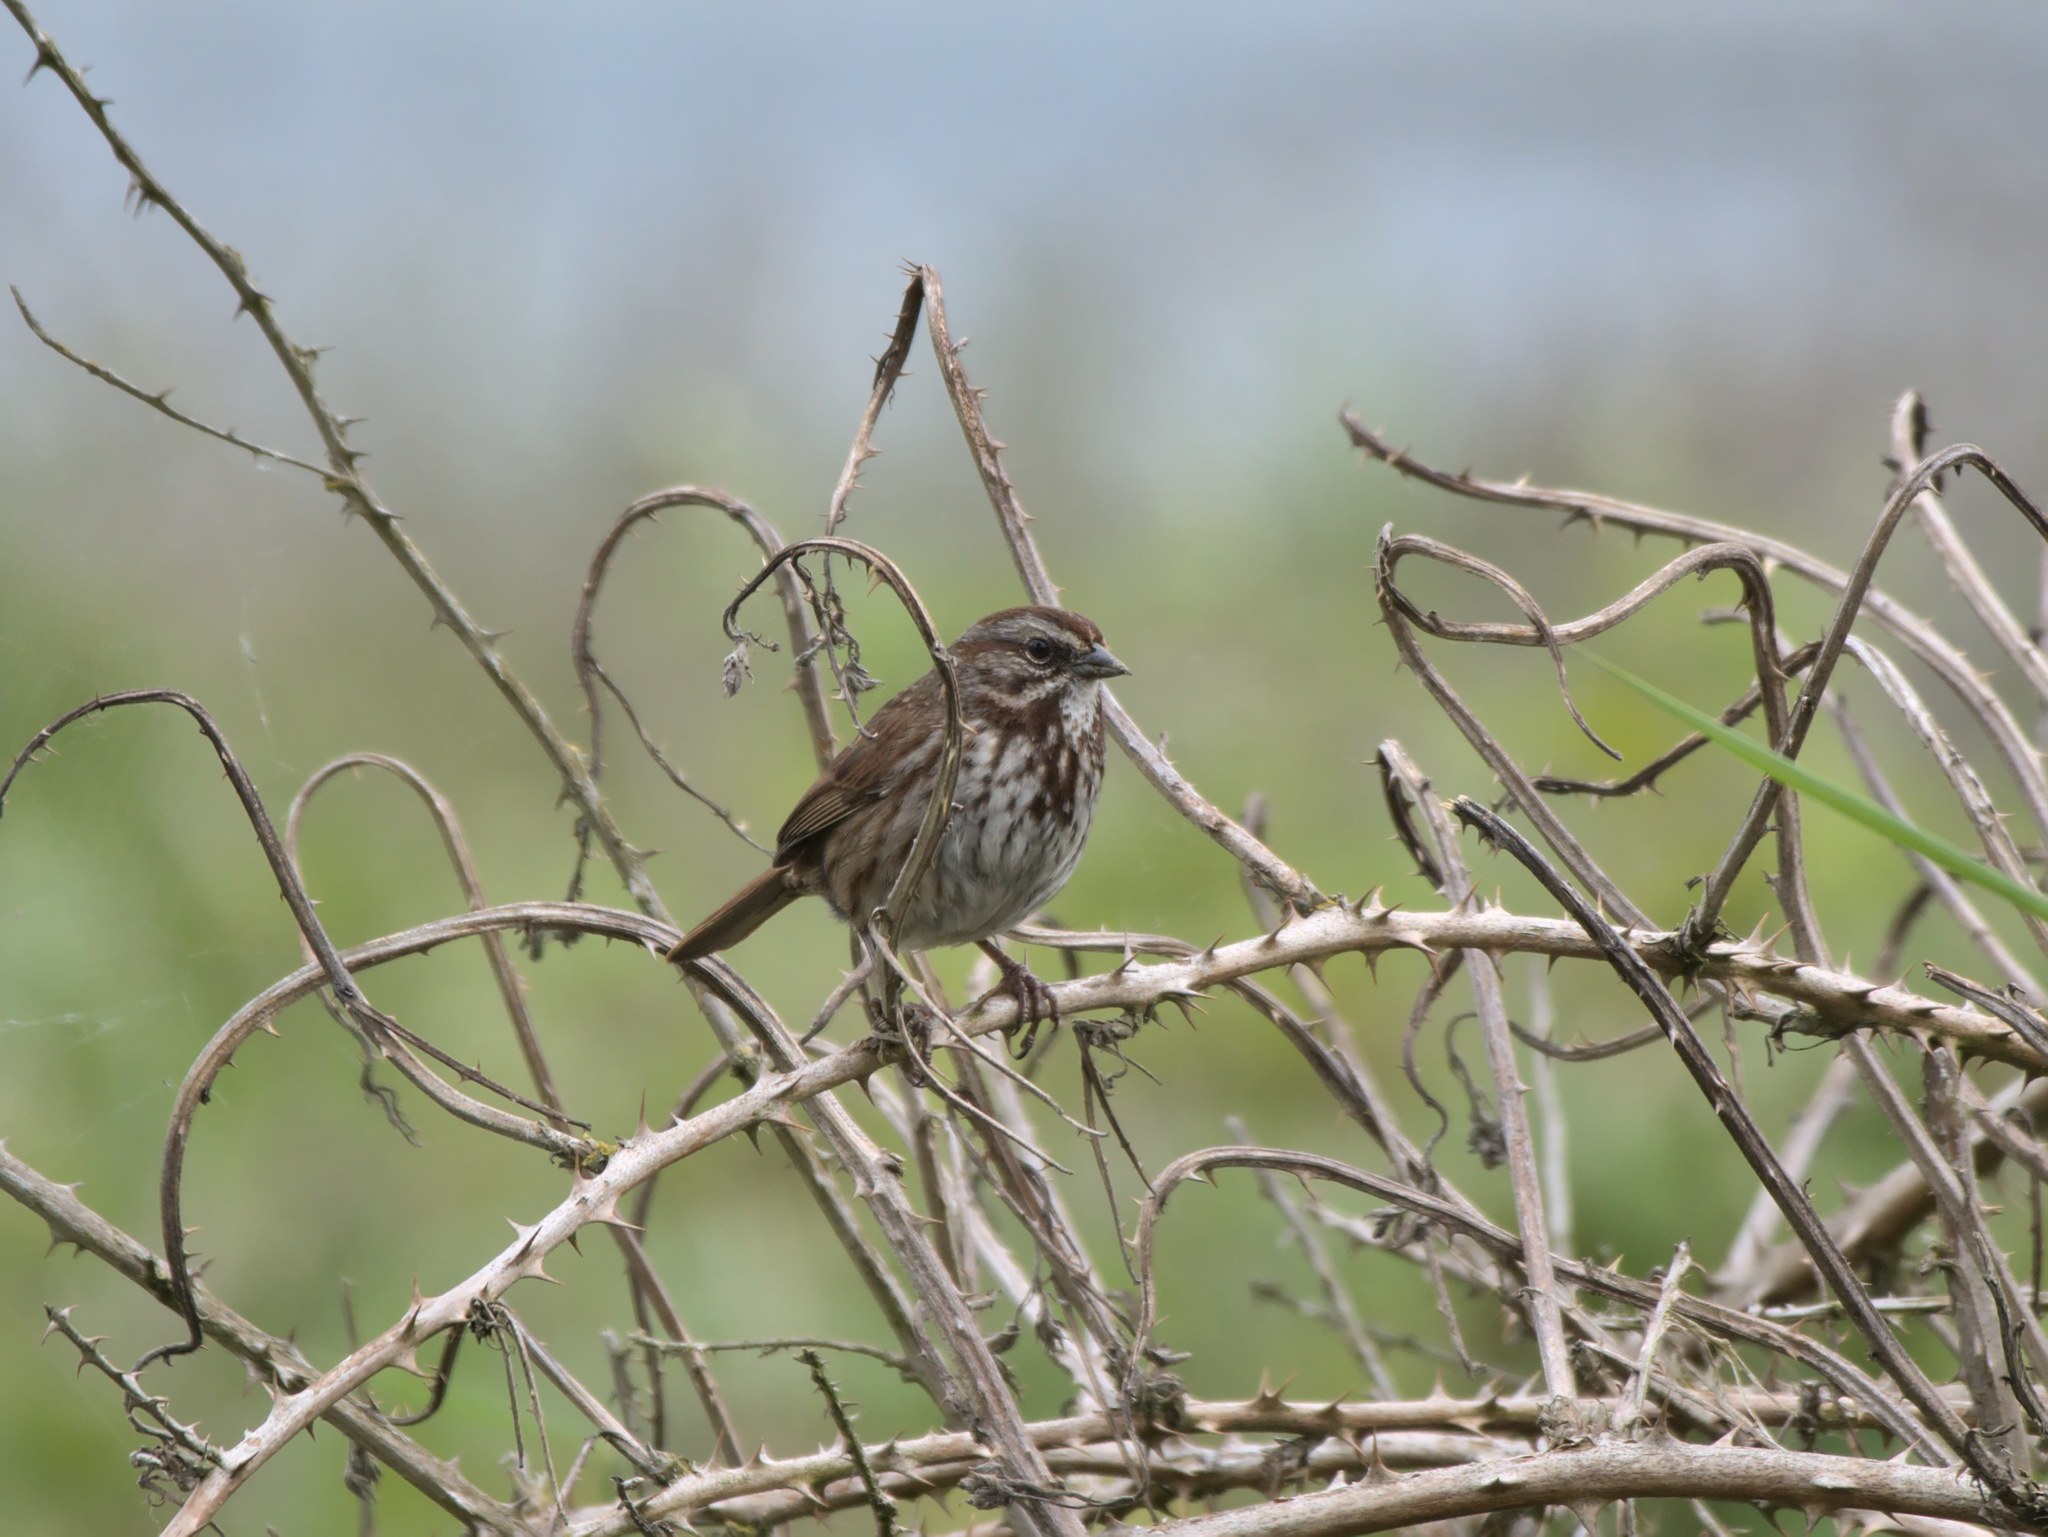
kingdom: Animalia
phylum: Chordata
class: Aves
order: Passeriformes
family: Passerellidae
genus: Melospiza
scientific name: Melospiza melodia
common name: Song sparrow
